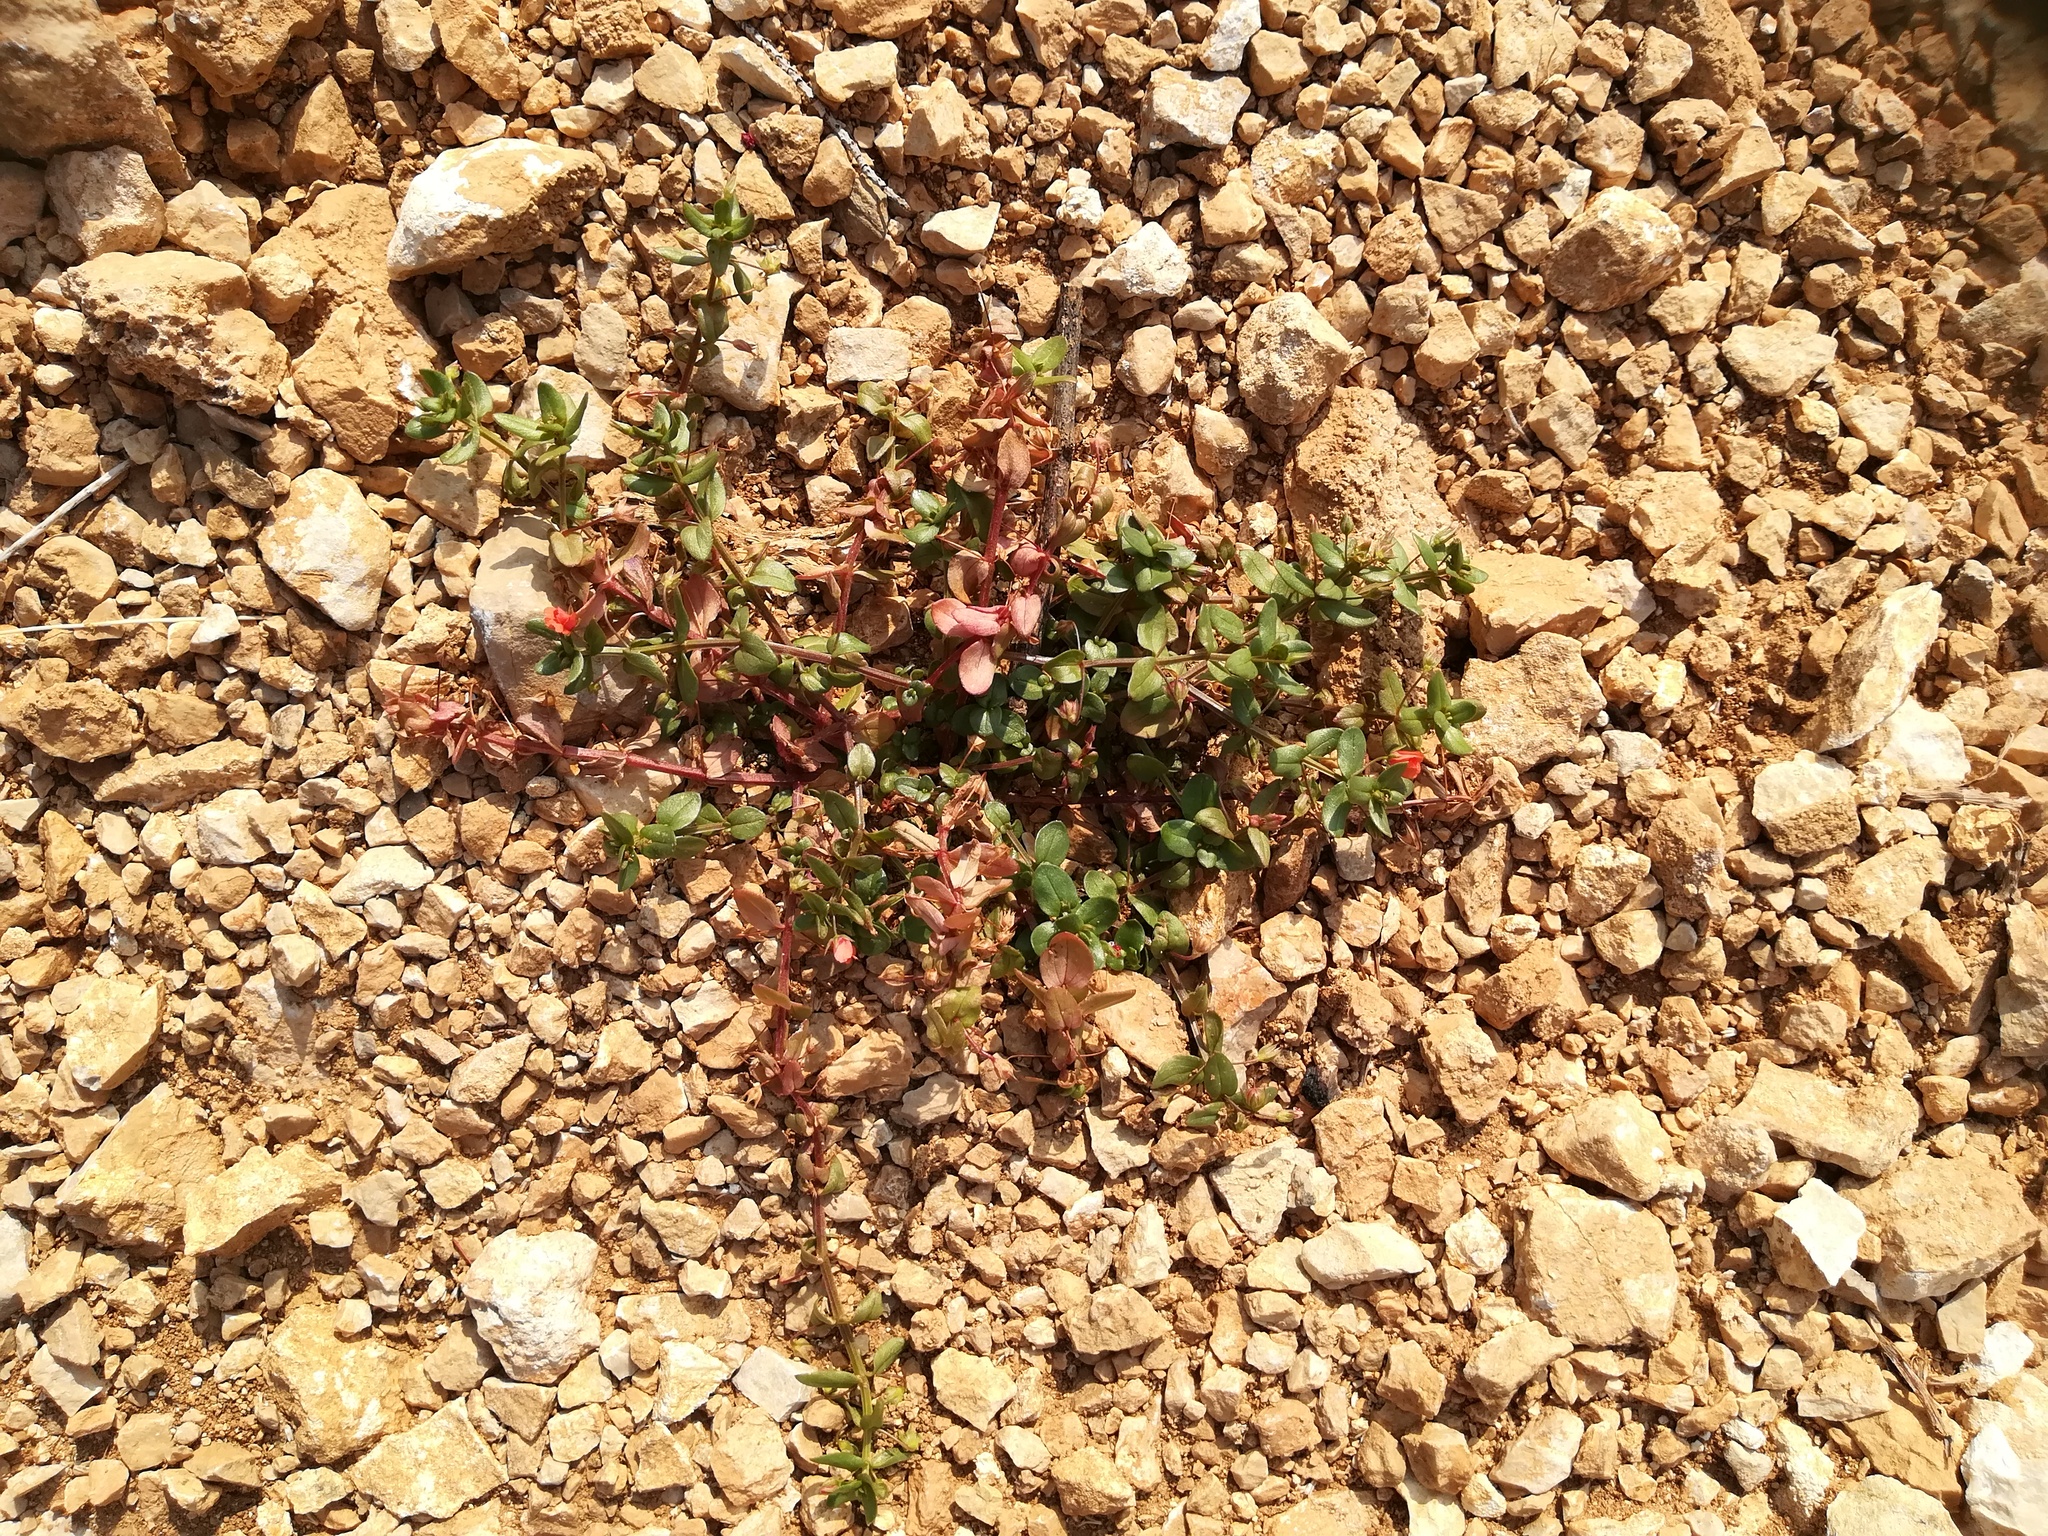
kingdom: Plantae
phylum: Tracheophyta
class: Magnoliopsida
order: Ericales
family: Primulaceae
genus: Lysimachia
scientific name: Lysimachia arvensis
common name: Scarlet pimpernel
